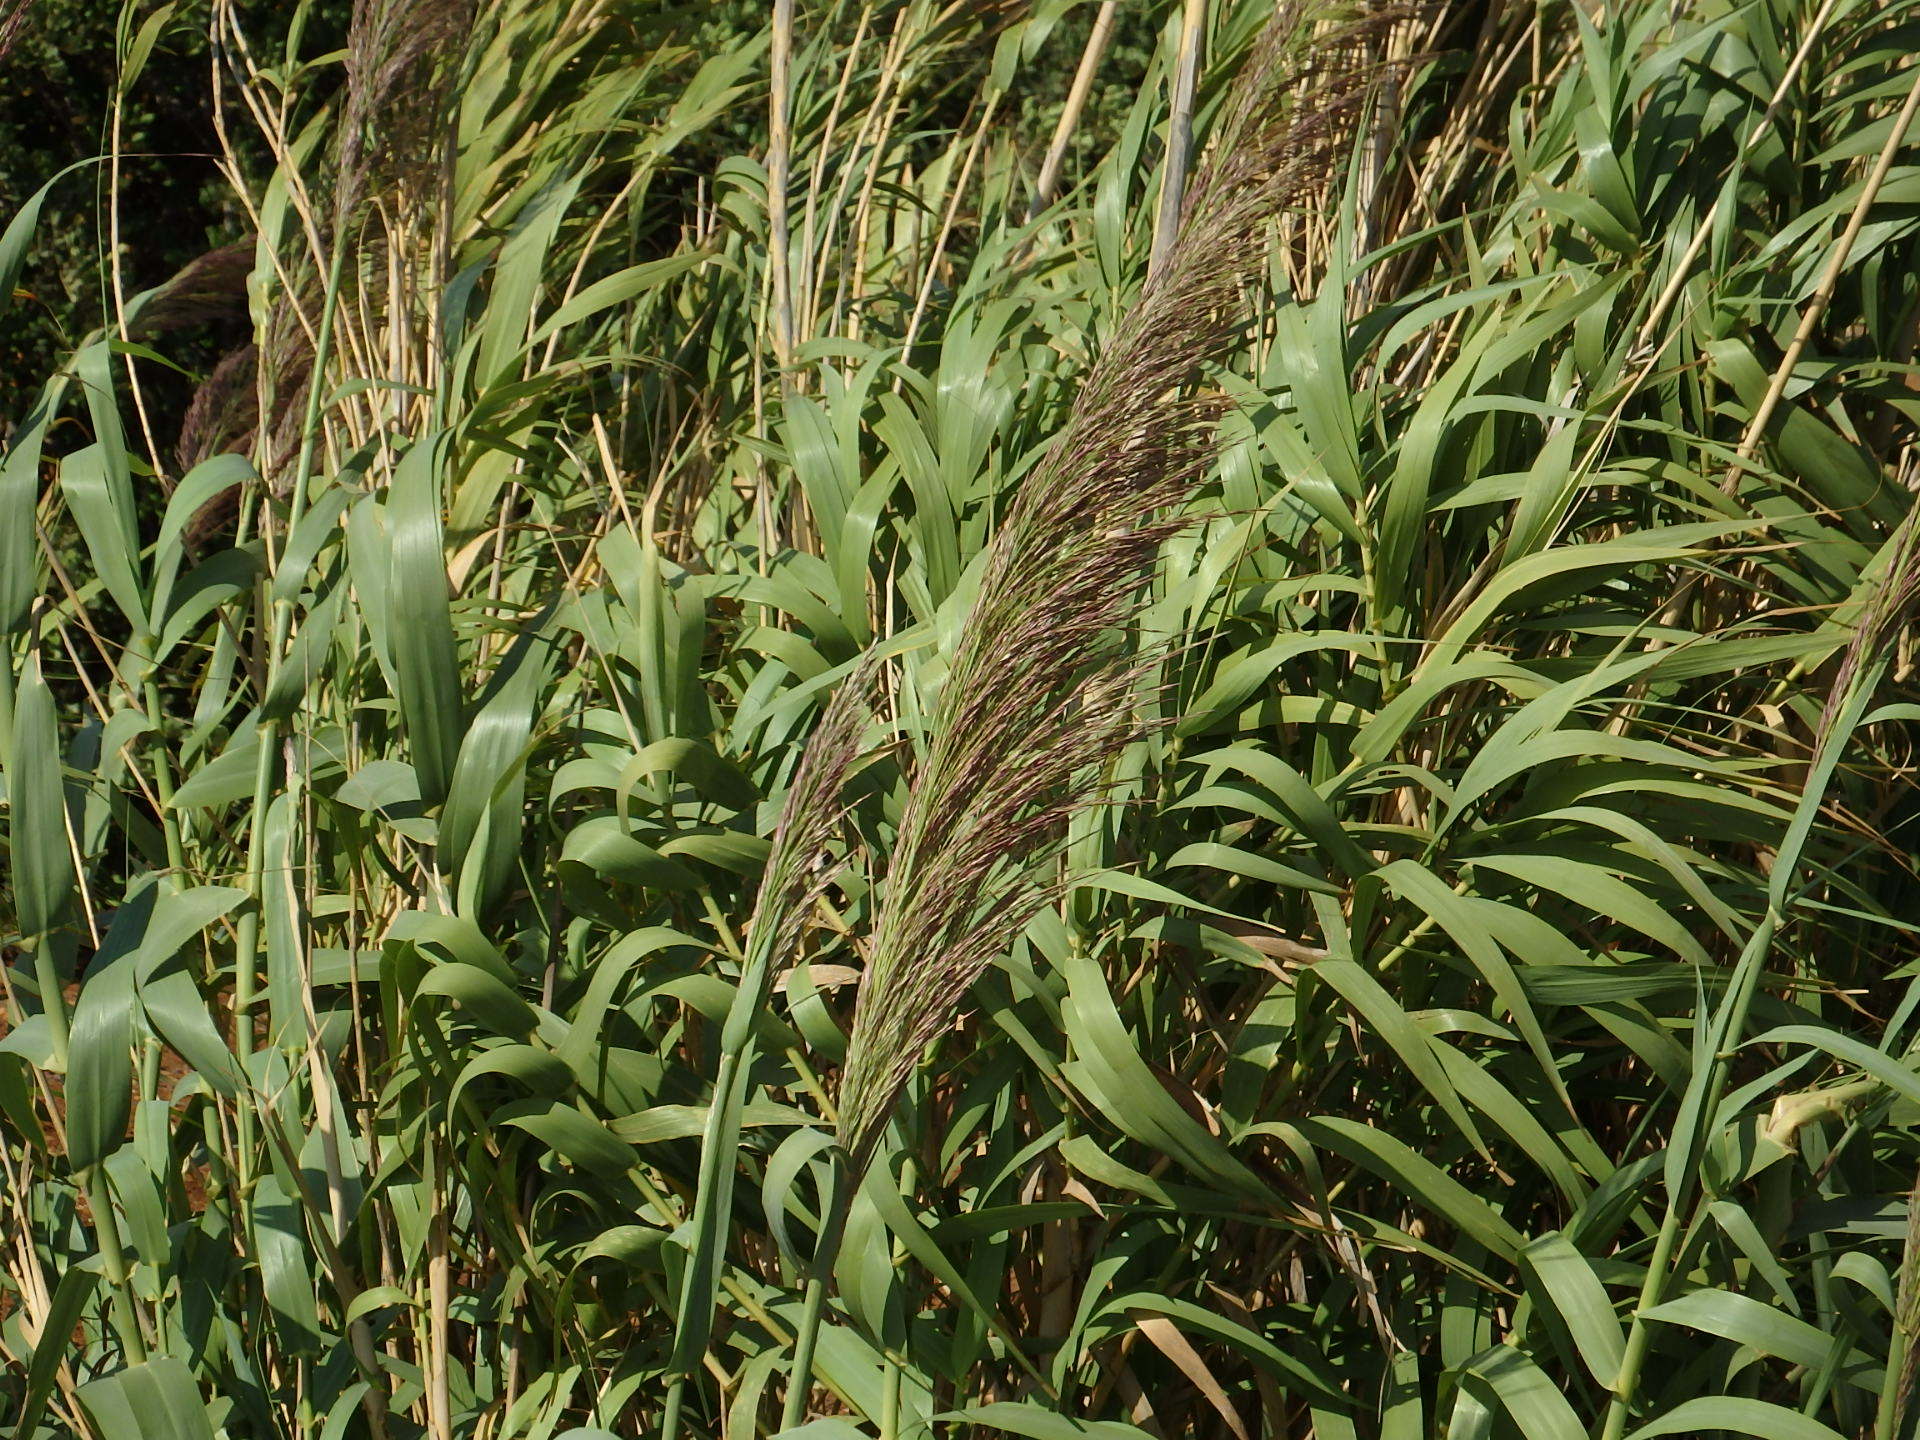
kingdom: Plantae
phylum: Tracheophyta
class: Liliopsida
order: Poales
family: Poaceae
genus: Arundo
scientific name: Arundo donax
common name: Giant reed
